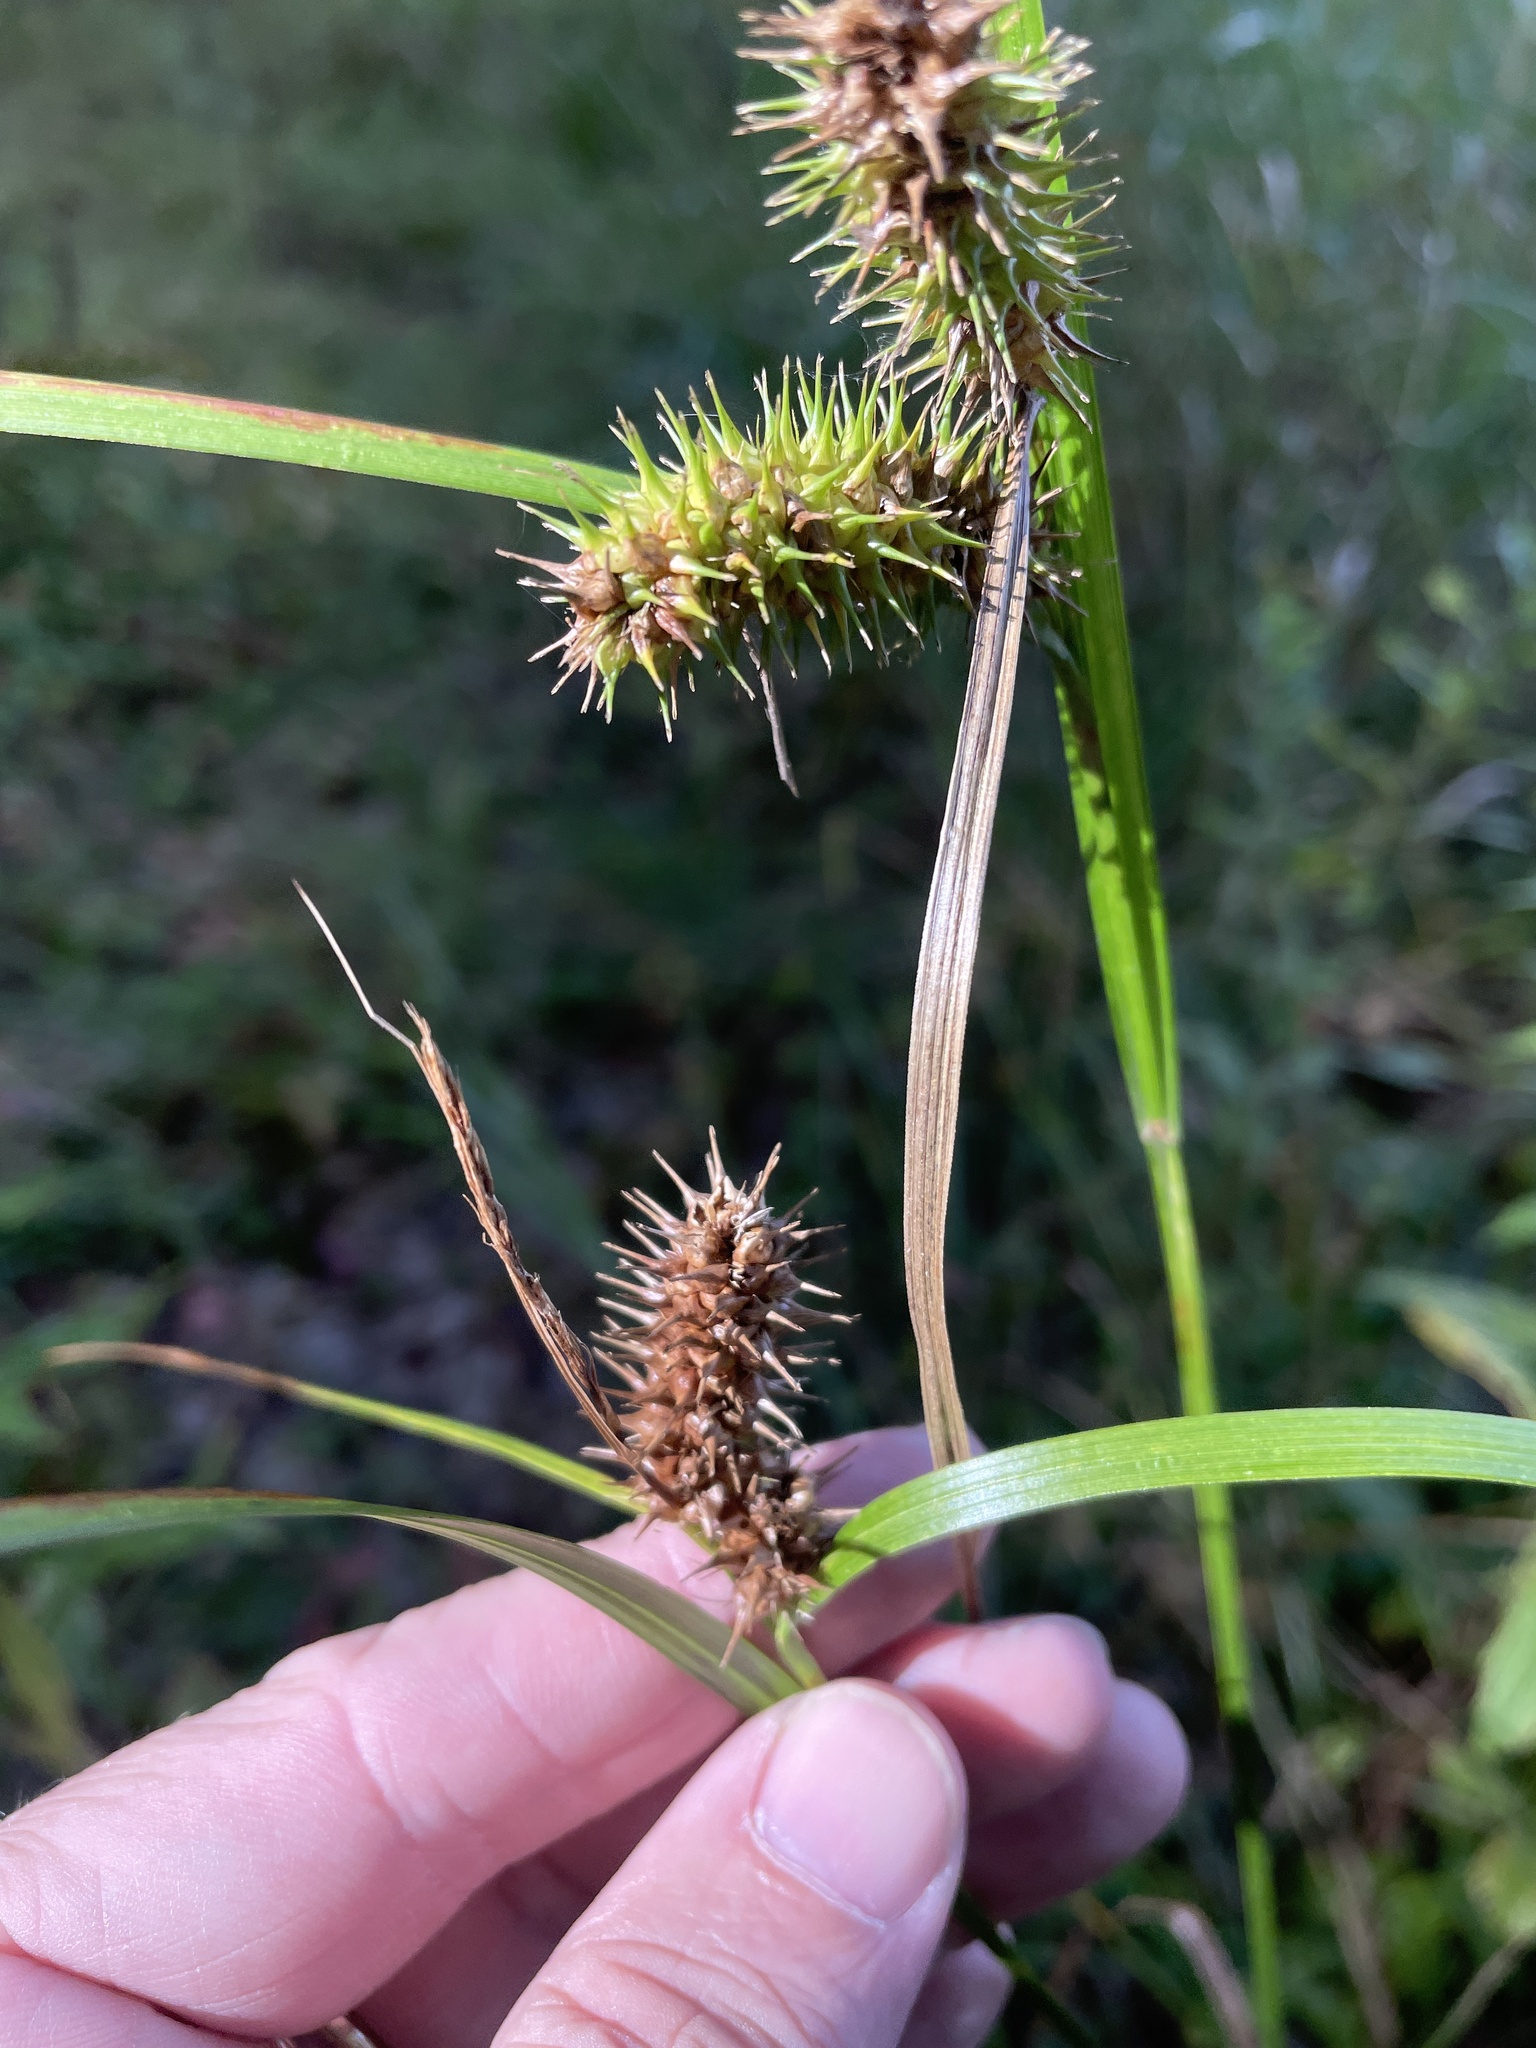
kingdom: Plantae
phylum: Tracheophyta
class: Liliopsida
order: Poales
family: Cyperaceae
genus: Carex
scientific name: Carex lurida
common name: Sallow sedge
